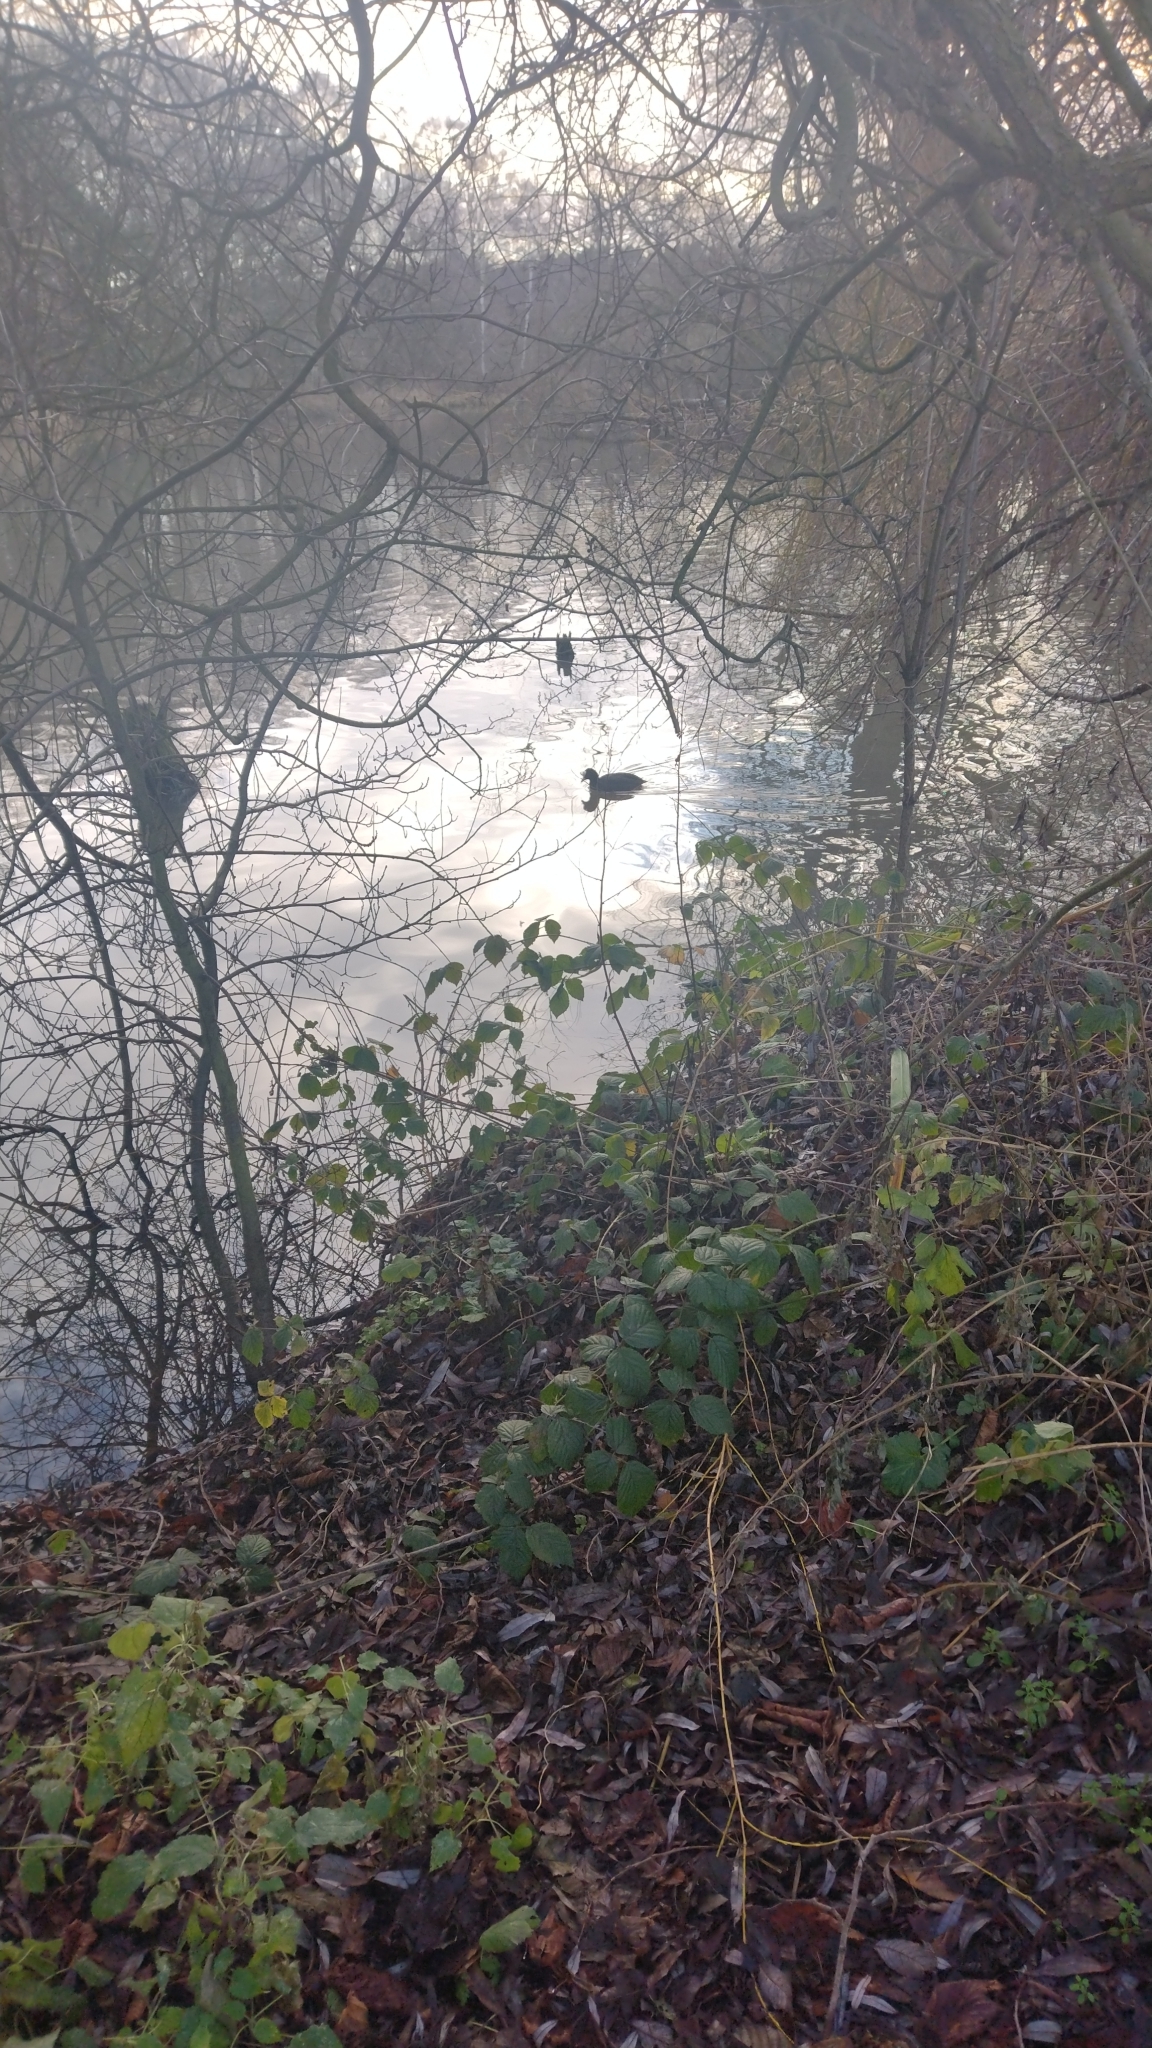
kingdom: Animalia
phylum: Chordata
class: Aves
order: Gruiformes
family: Rallidae
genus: Fulica
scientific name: Fulica atra
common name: Eurasian coot
